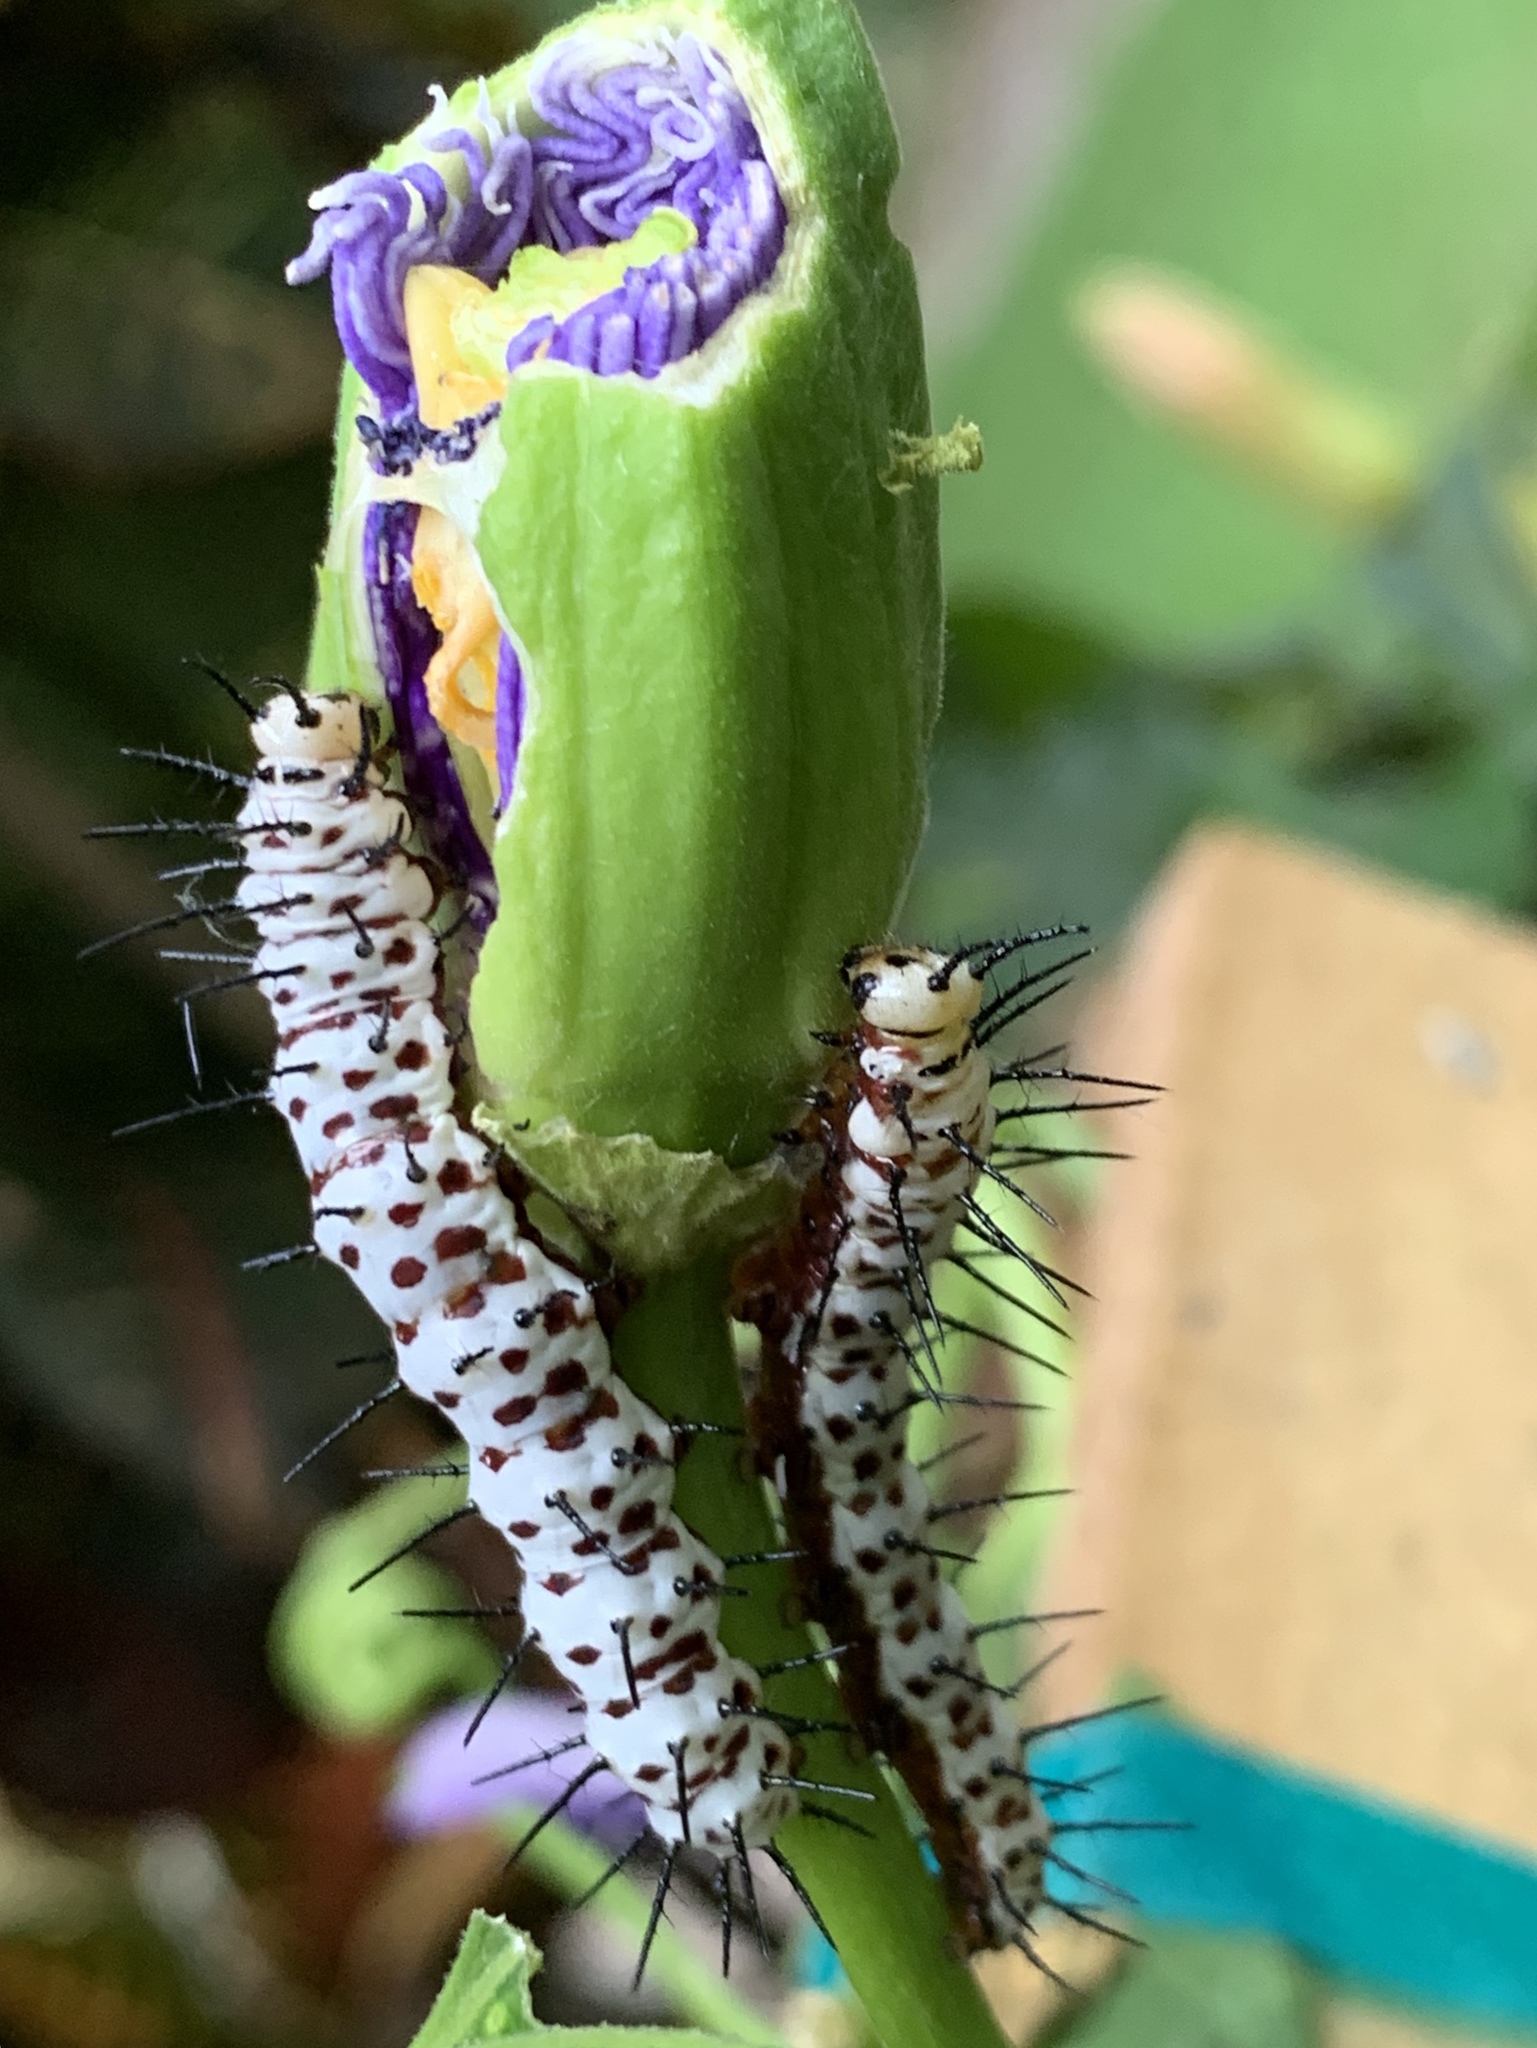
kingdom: Animalia
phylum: Arthropoda
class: Insecta
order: Lepidoptera
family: Nymphalidae
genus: Heliconius
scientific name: Heliconius charithonia
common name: Zebra long wing
